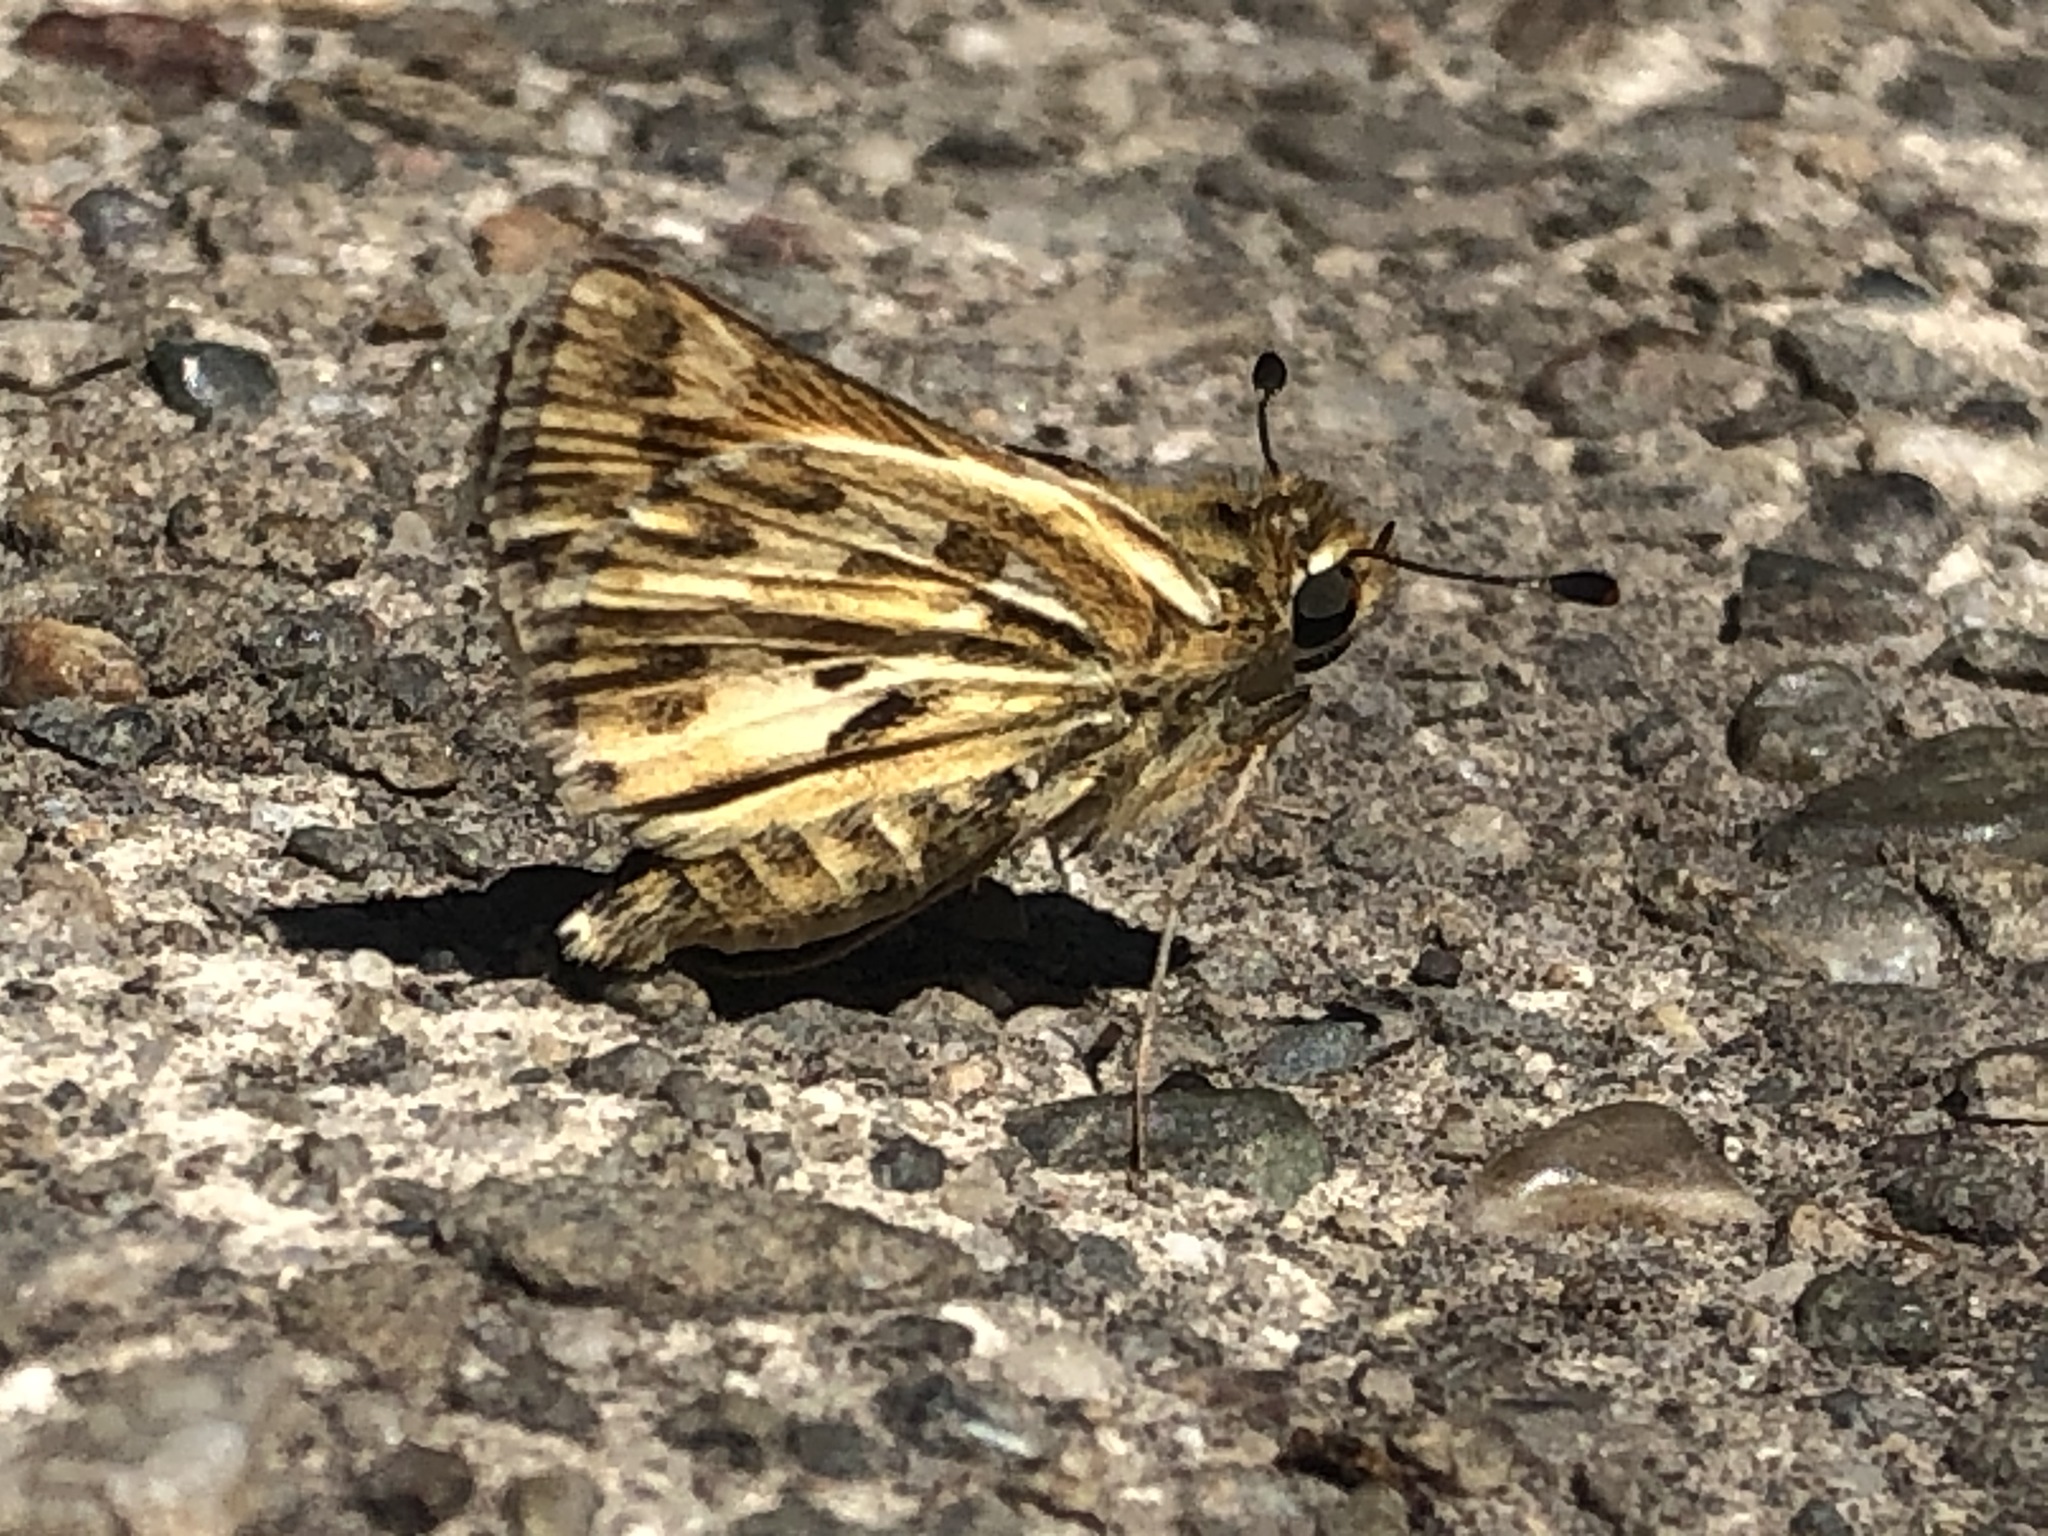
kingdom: Animalia
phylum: Arthropoda
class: Insecta
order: Lepidoptera
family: Hesperiidae
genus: Polites
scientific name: Polites sabuleti
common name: Sandhill skipper
